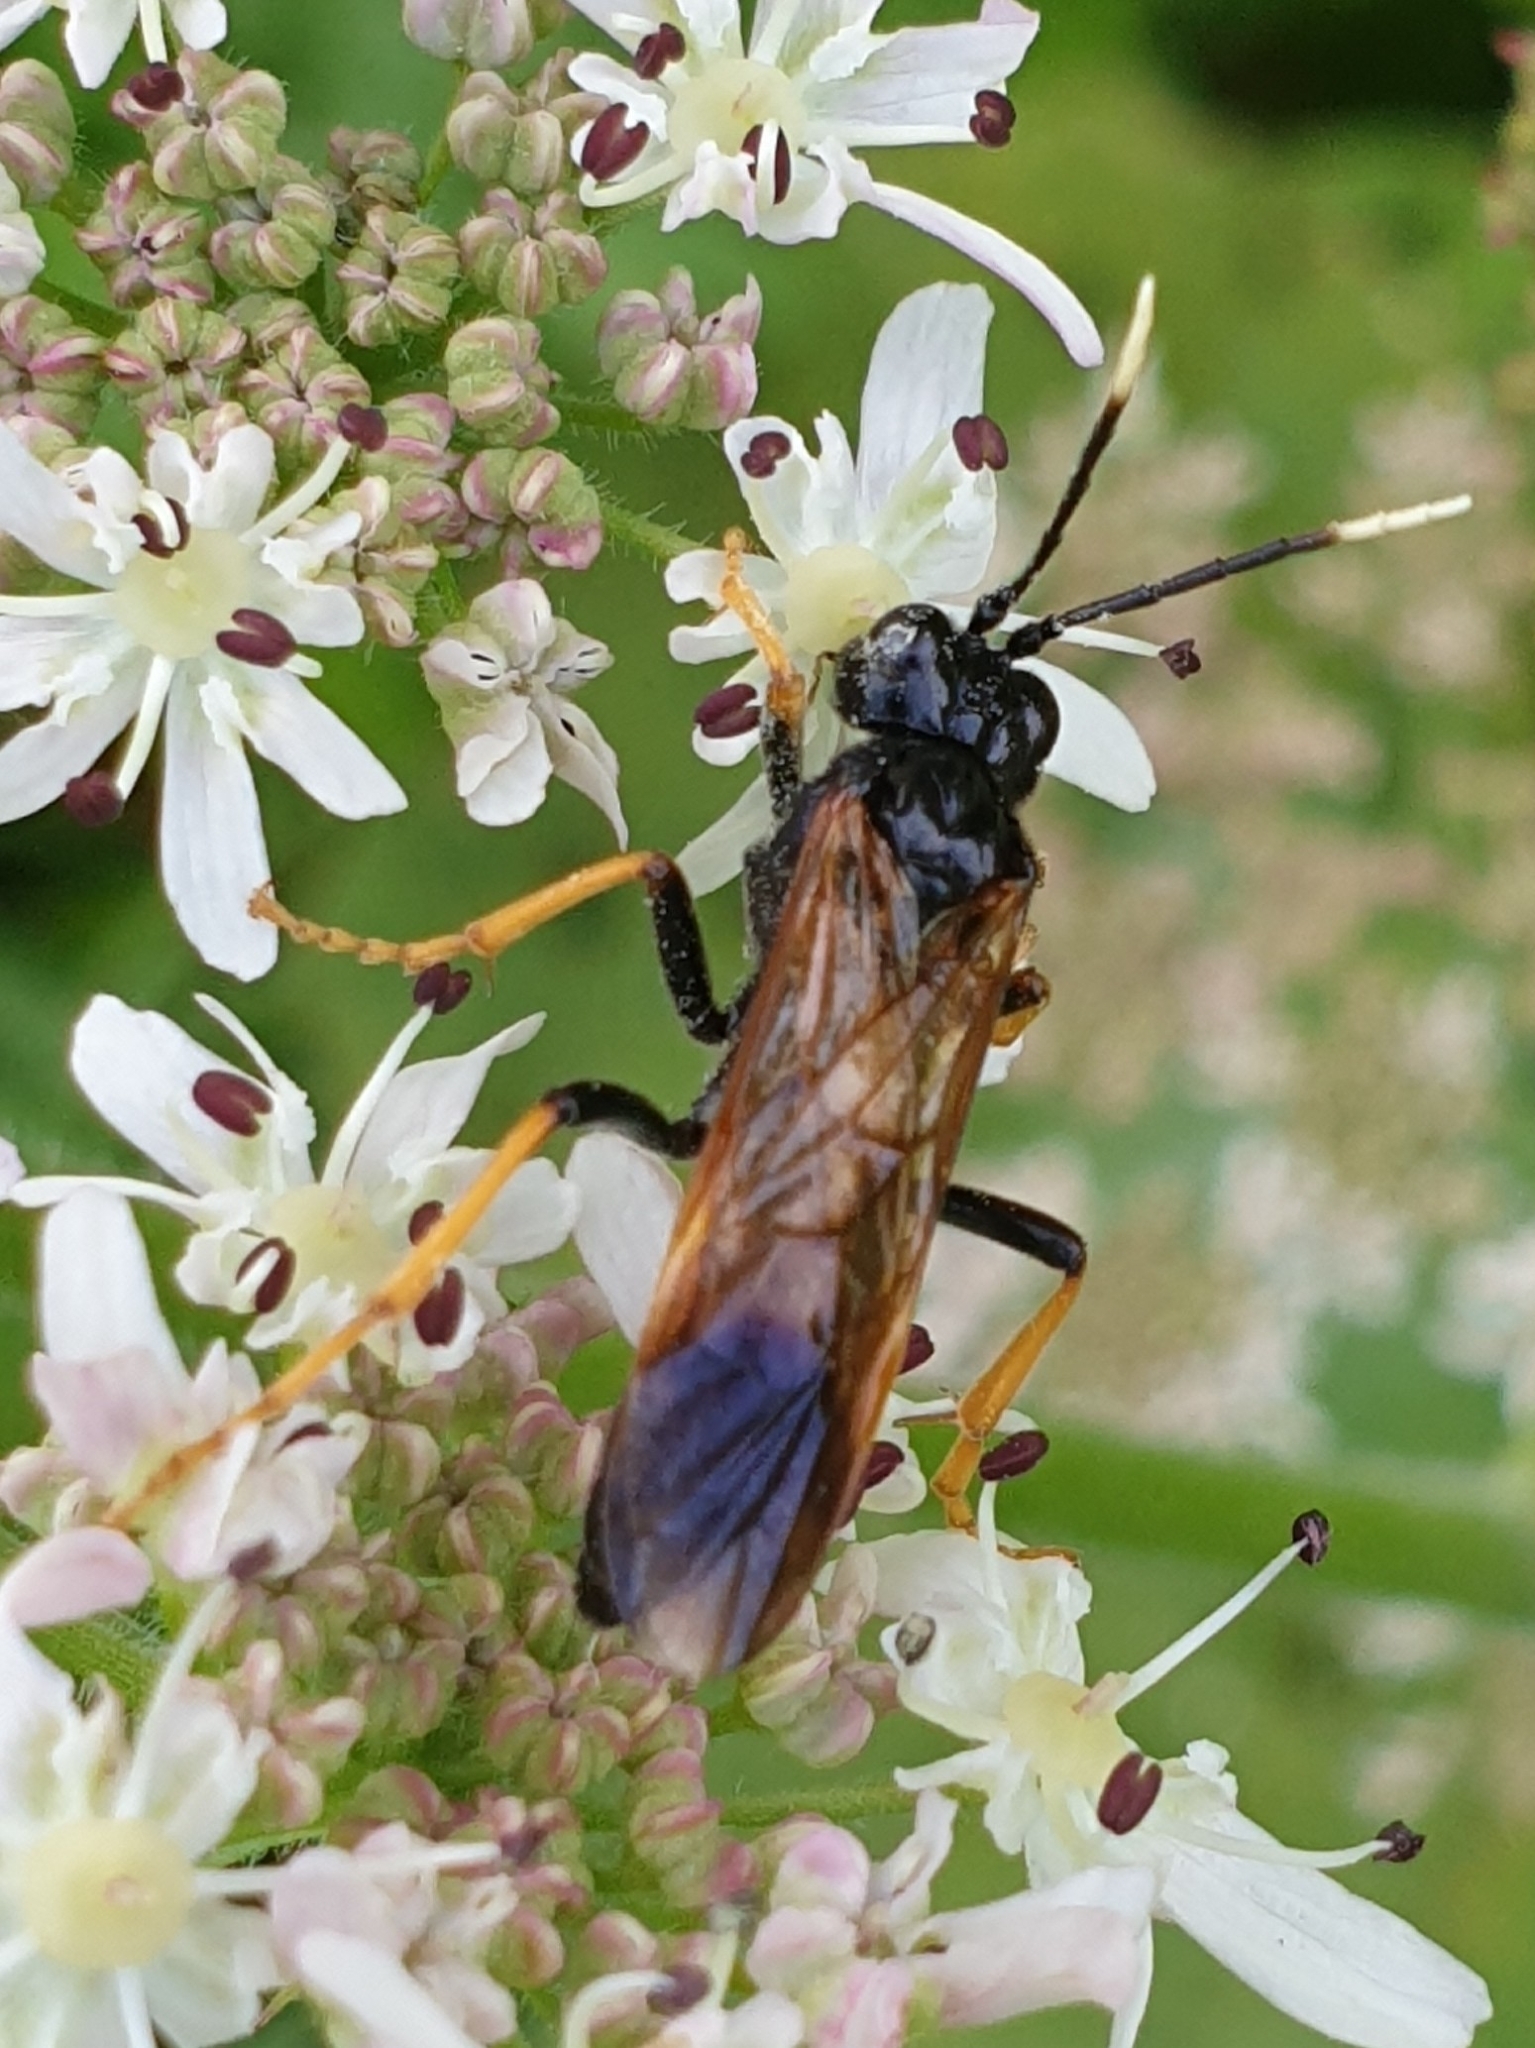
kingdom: Animalia
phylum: Arthropoda
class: Insecta
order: Hymenoptera
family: Tenthredinidae
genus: Tenthredo
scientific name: Tenthredo crassa
